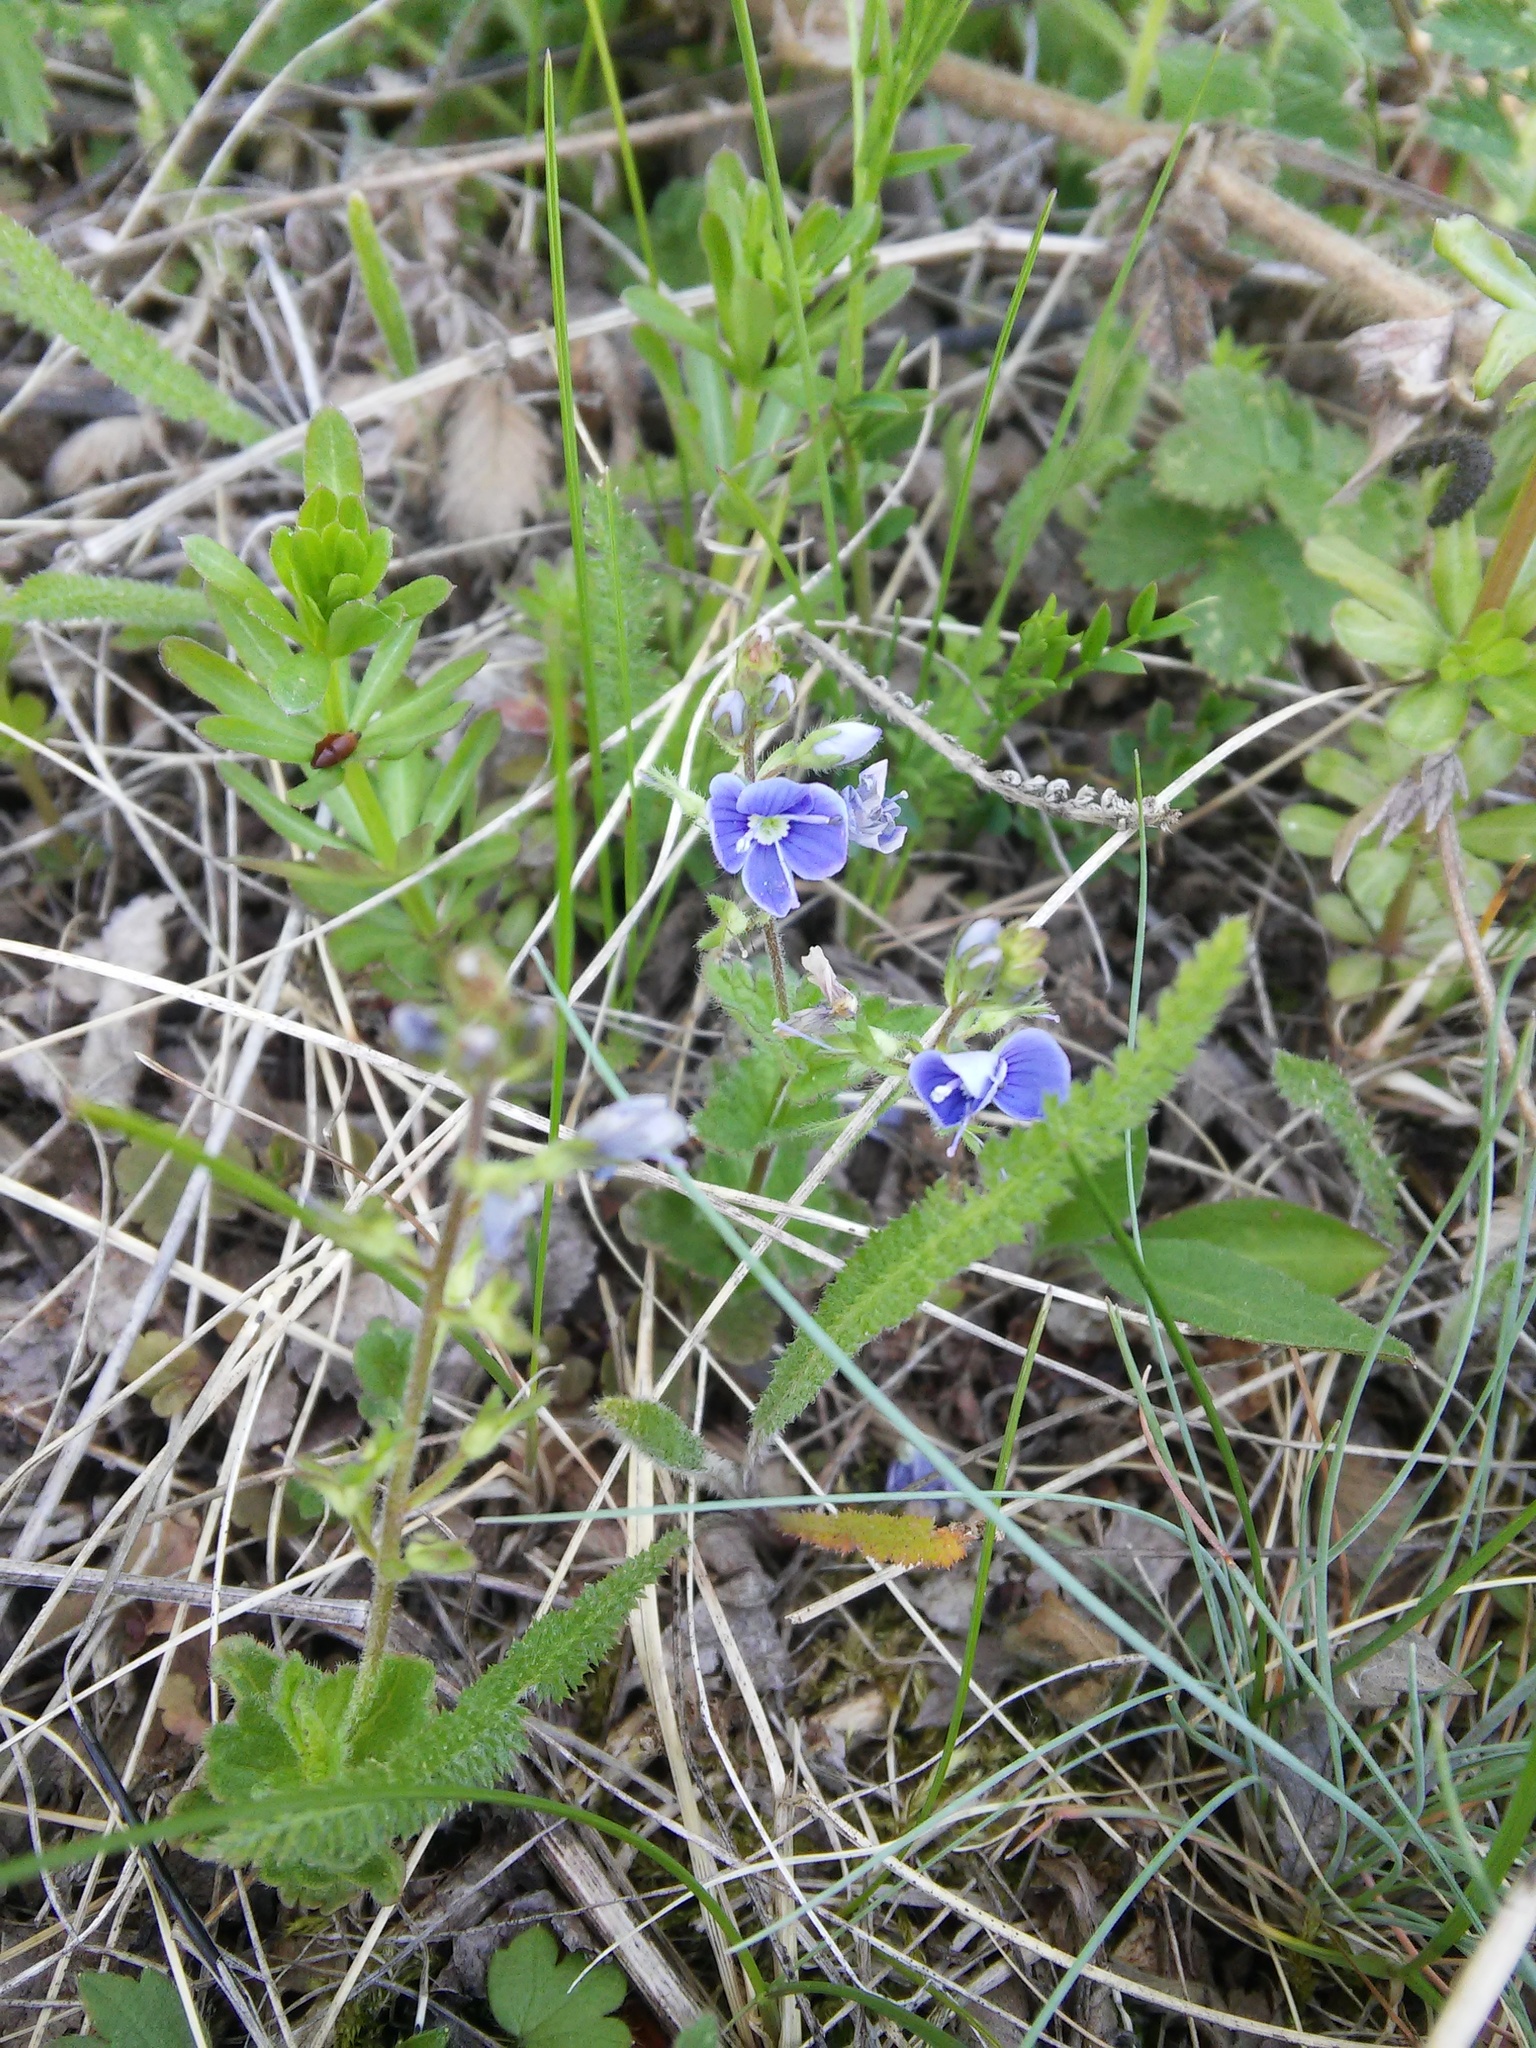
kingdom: Plantae
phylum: Tracheophyta
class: Magnoliopsida
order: Lamiales
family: Plantaginaceae
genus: Veronica
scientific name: Veronica chamaedrys
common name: Germander speedwell
